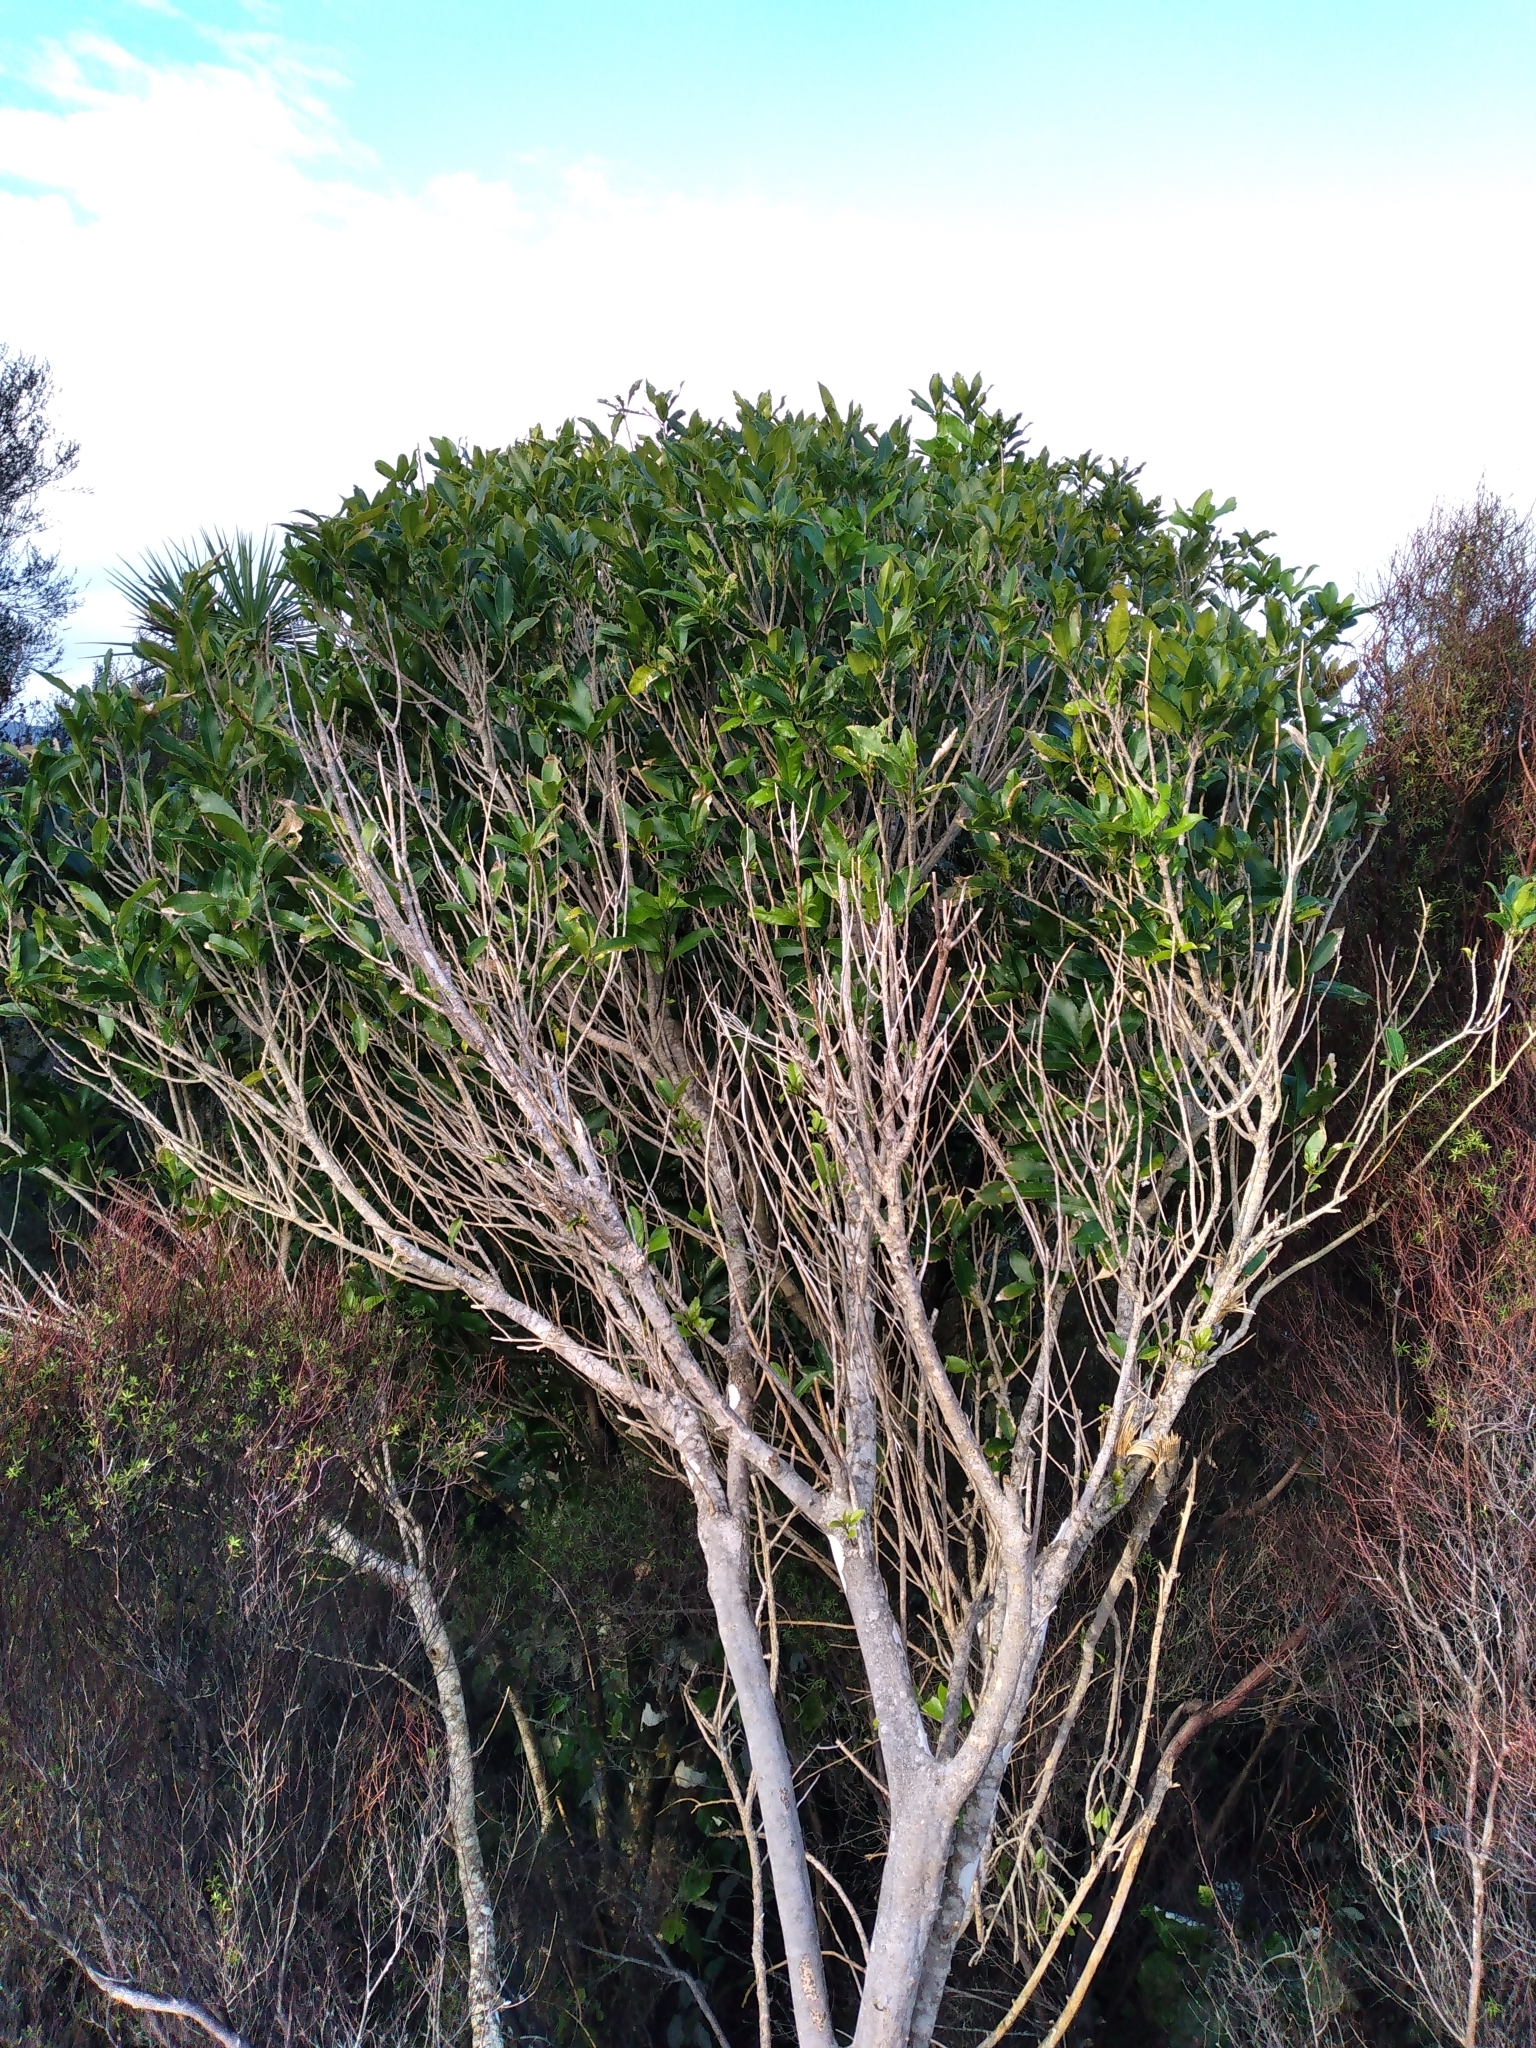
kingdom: Plantae
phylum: Tracheophyta
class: Magnoliopsida
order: Malpighiales
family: Violaceae
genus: Melicytus
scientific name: Melicytus ramiflorus
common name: Mahoe
